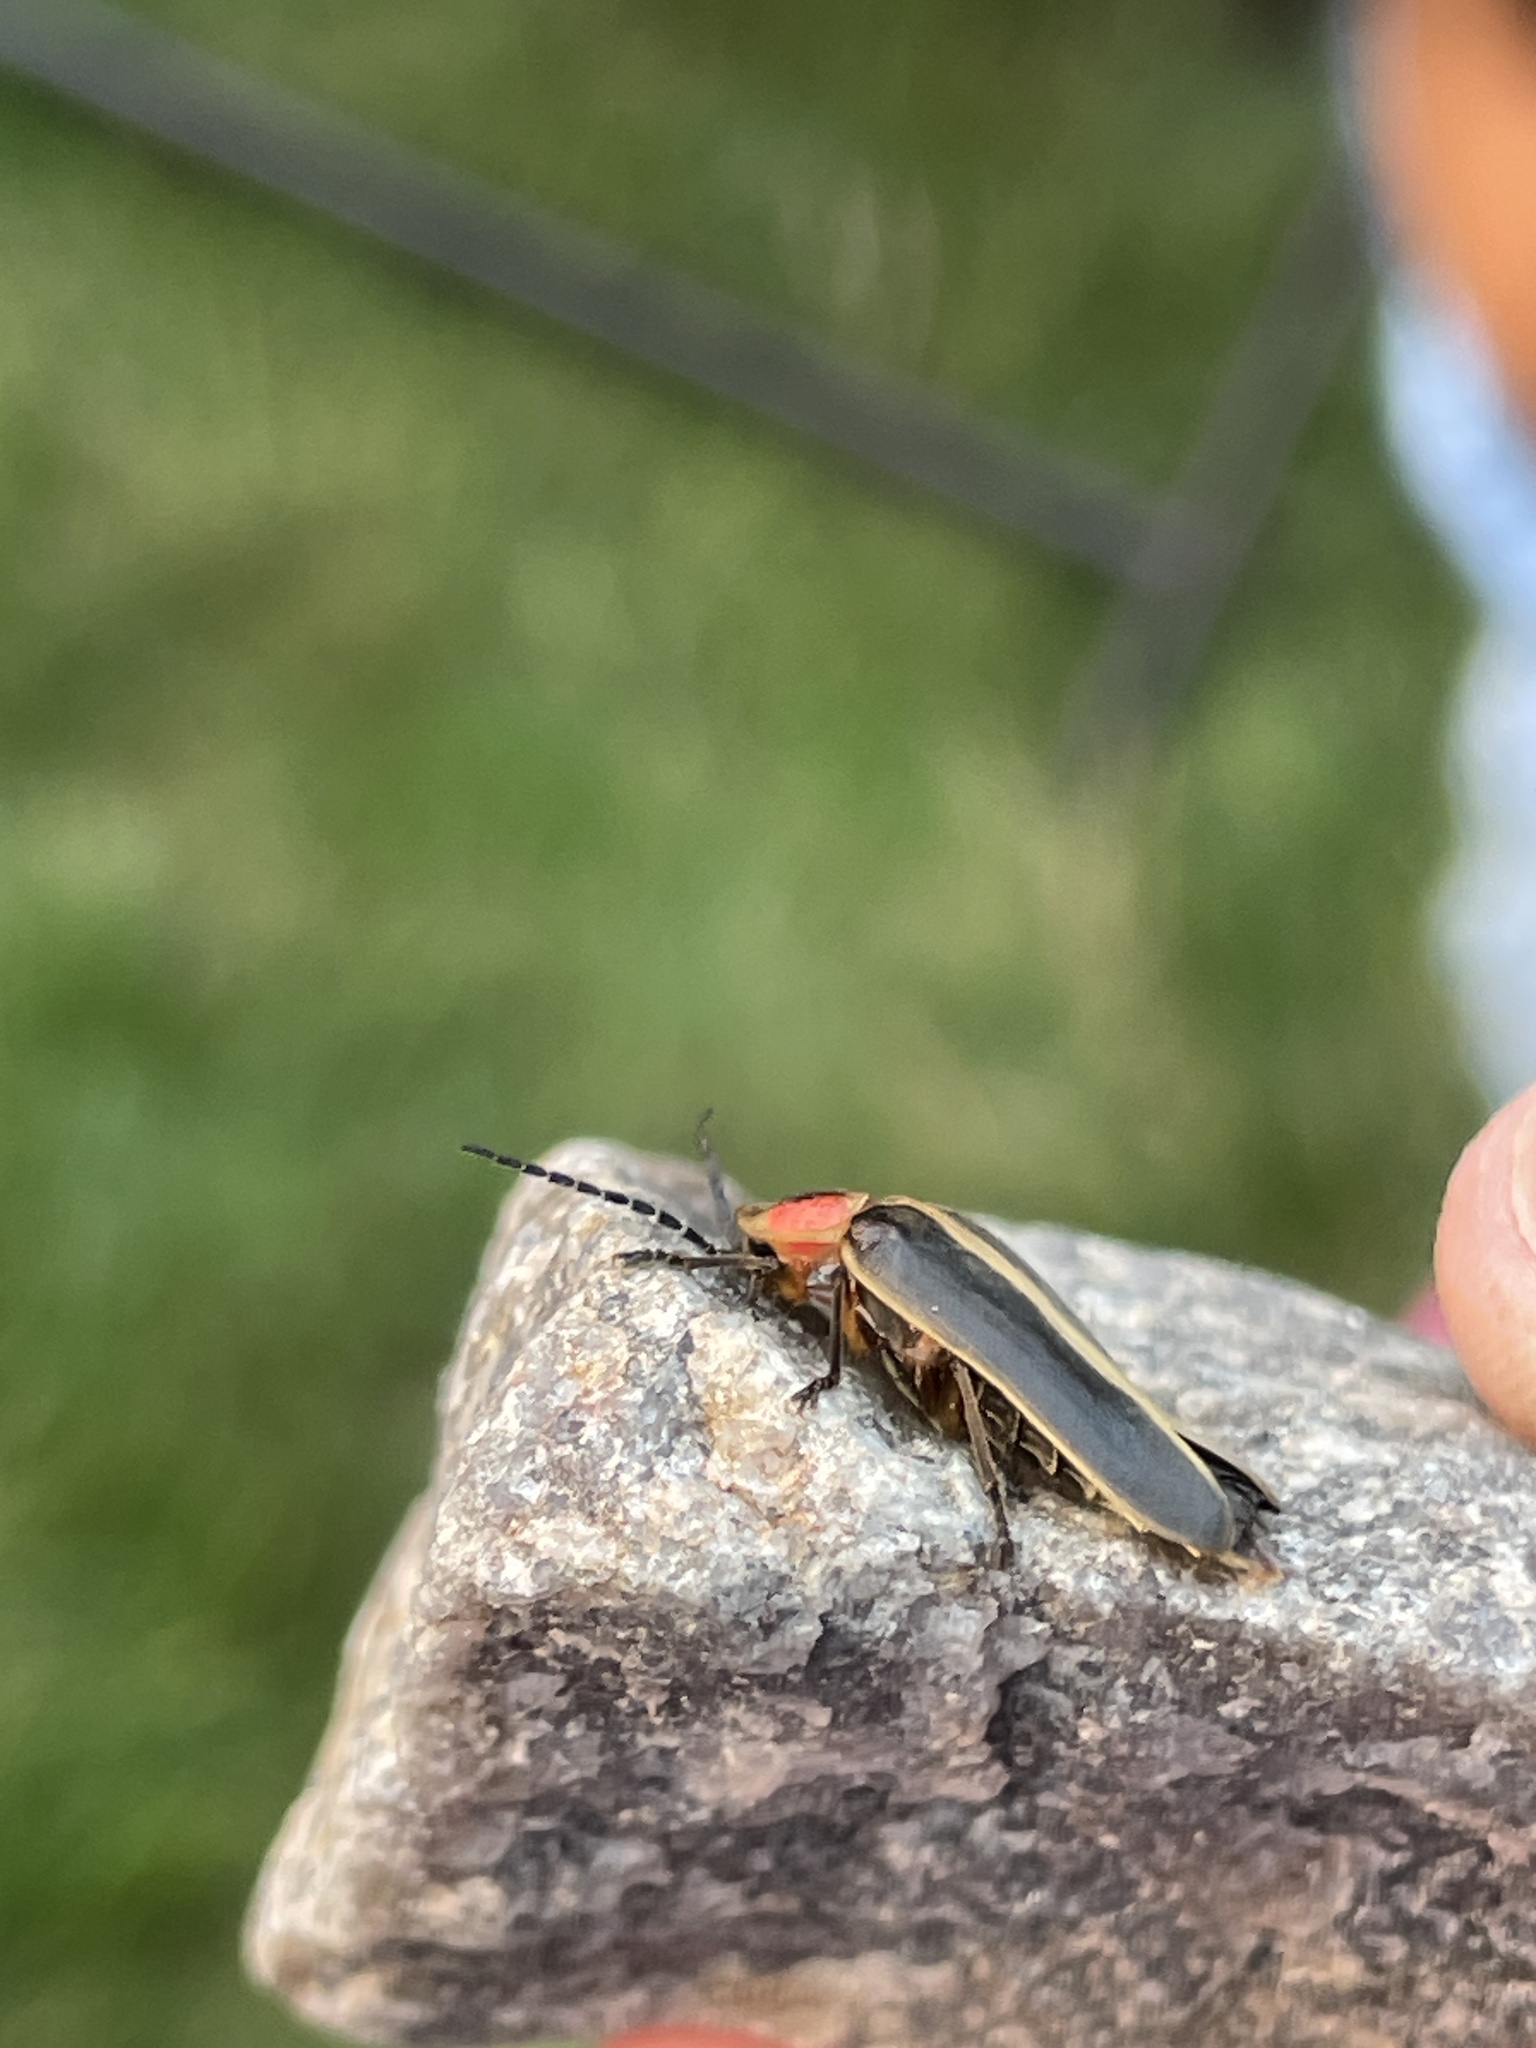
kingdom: Animalia
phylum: Arthropoda
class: Insecta
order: Coleoptera
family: Lampyridae
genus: Photinus
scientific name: Photinus pyralis
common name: Big dipper firefly
